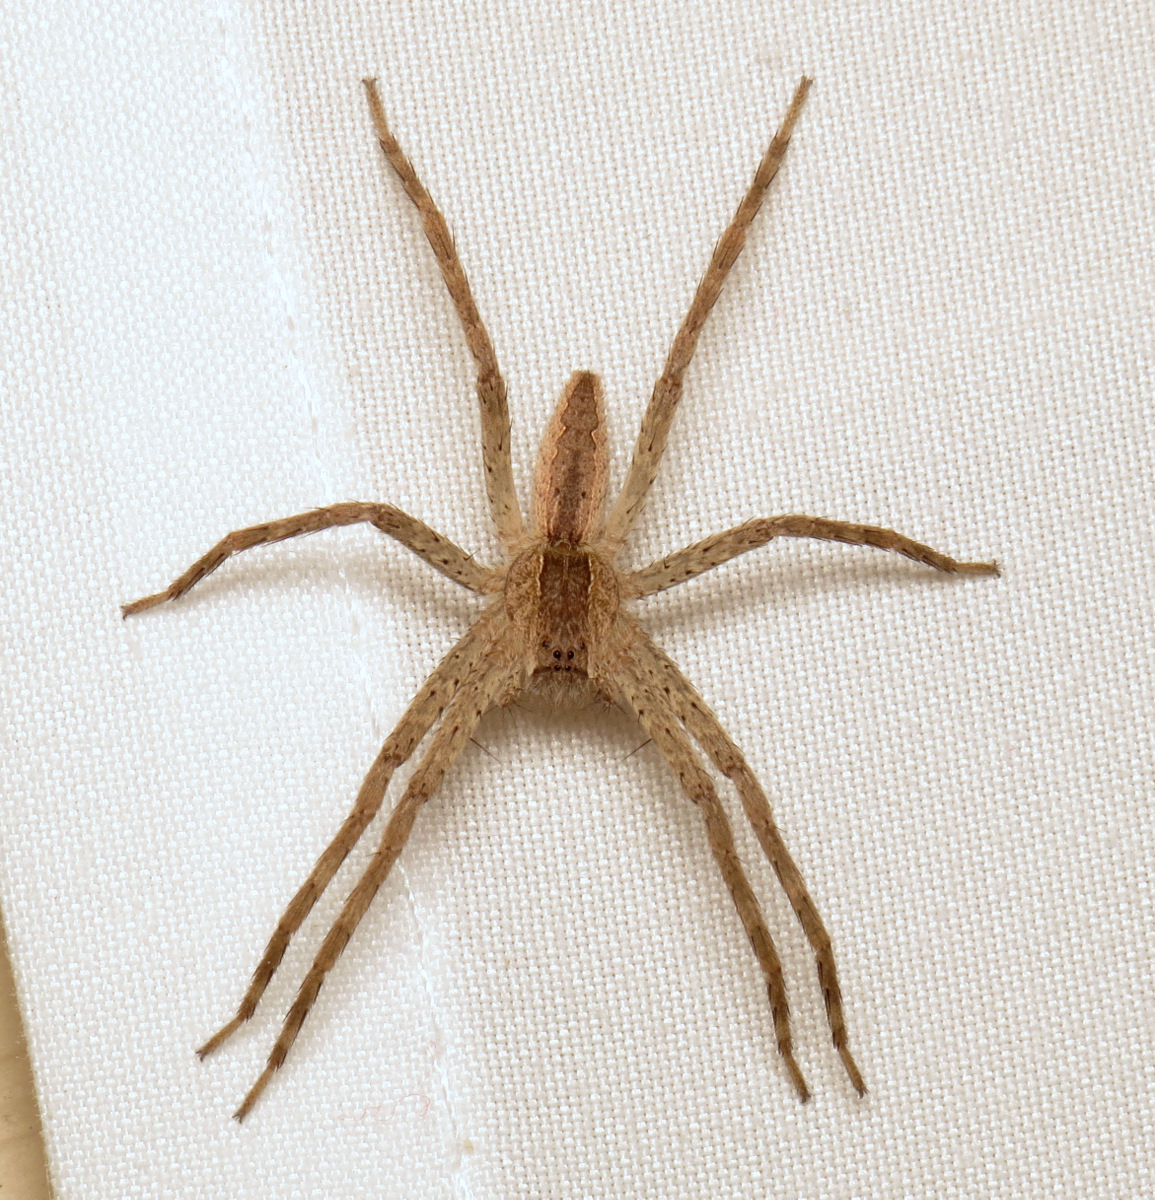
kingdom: Animalia
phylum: Arthropoda
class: Arachnida
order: Araneae
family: Pisauridae
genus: Pisaurina
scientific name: Pisaurina mira
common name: American nursery web spider
